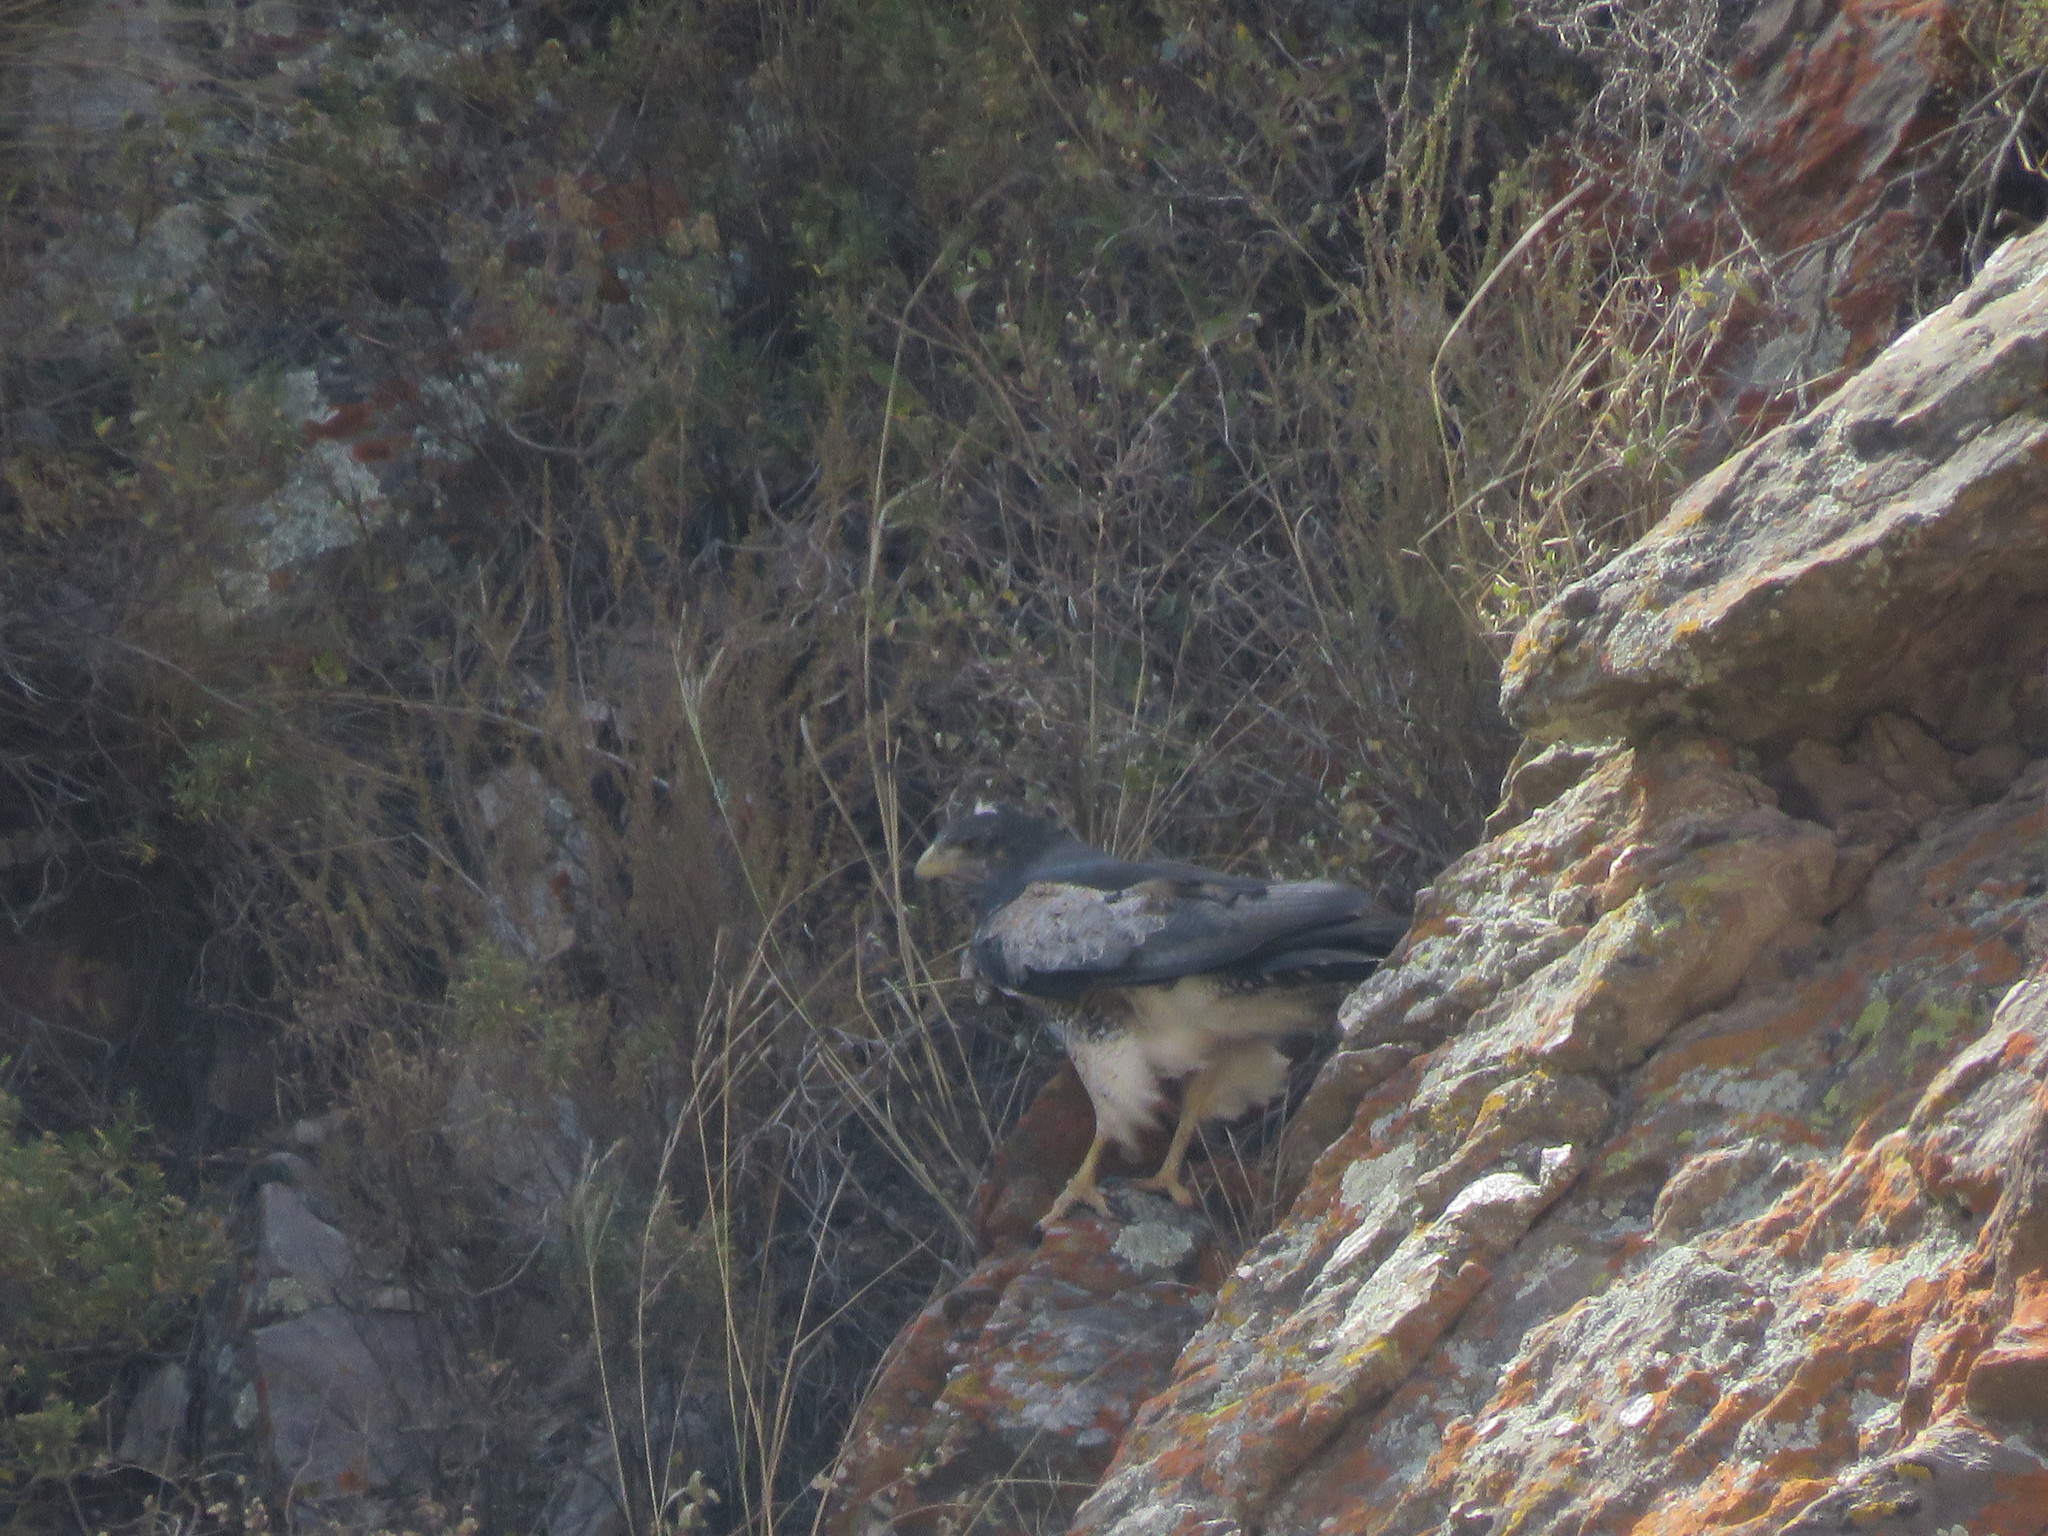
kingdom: Animalia
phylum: Chordata
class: Aves
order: Accipitriformes
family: Accipitridae
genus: Geranoaetus
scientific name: Geranoaetus melanoleucus
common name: Black-chested buzzard-eagle
